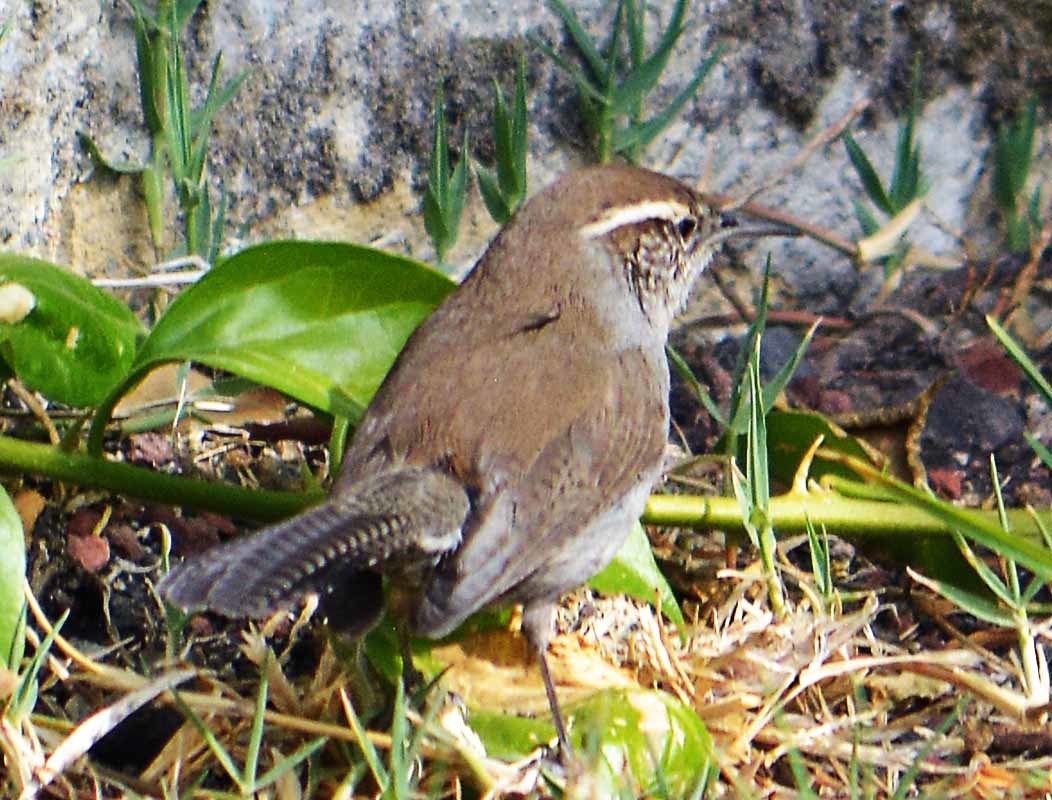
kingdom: Animalia
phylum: Chordata
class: Aves
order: Passeriformes
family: Troglodytidae
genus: Thryomanes
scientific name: Thryomanes bewickii
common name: Bewick's wren
